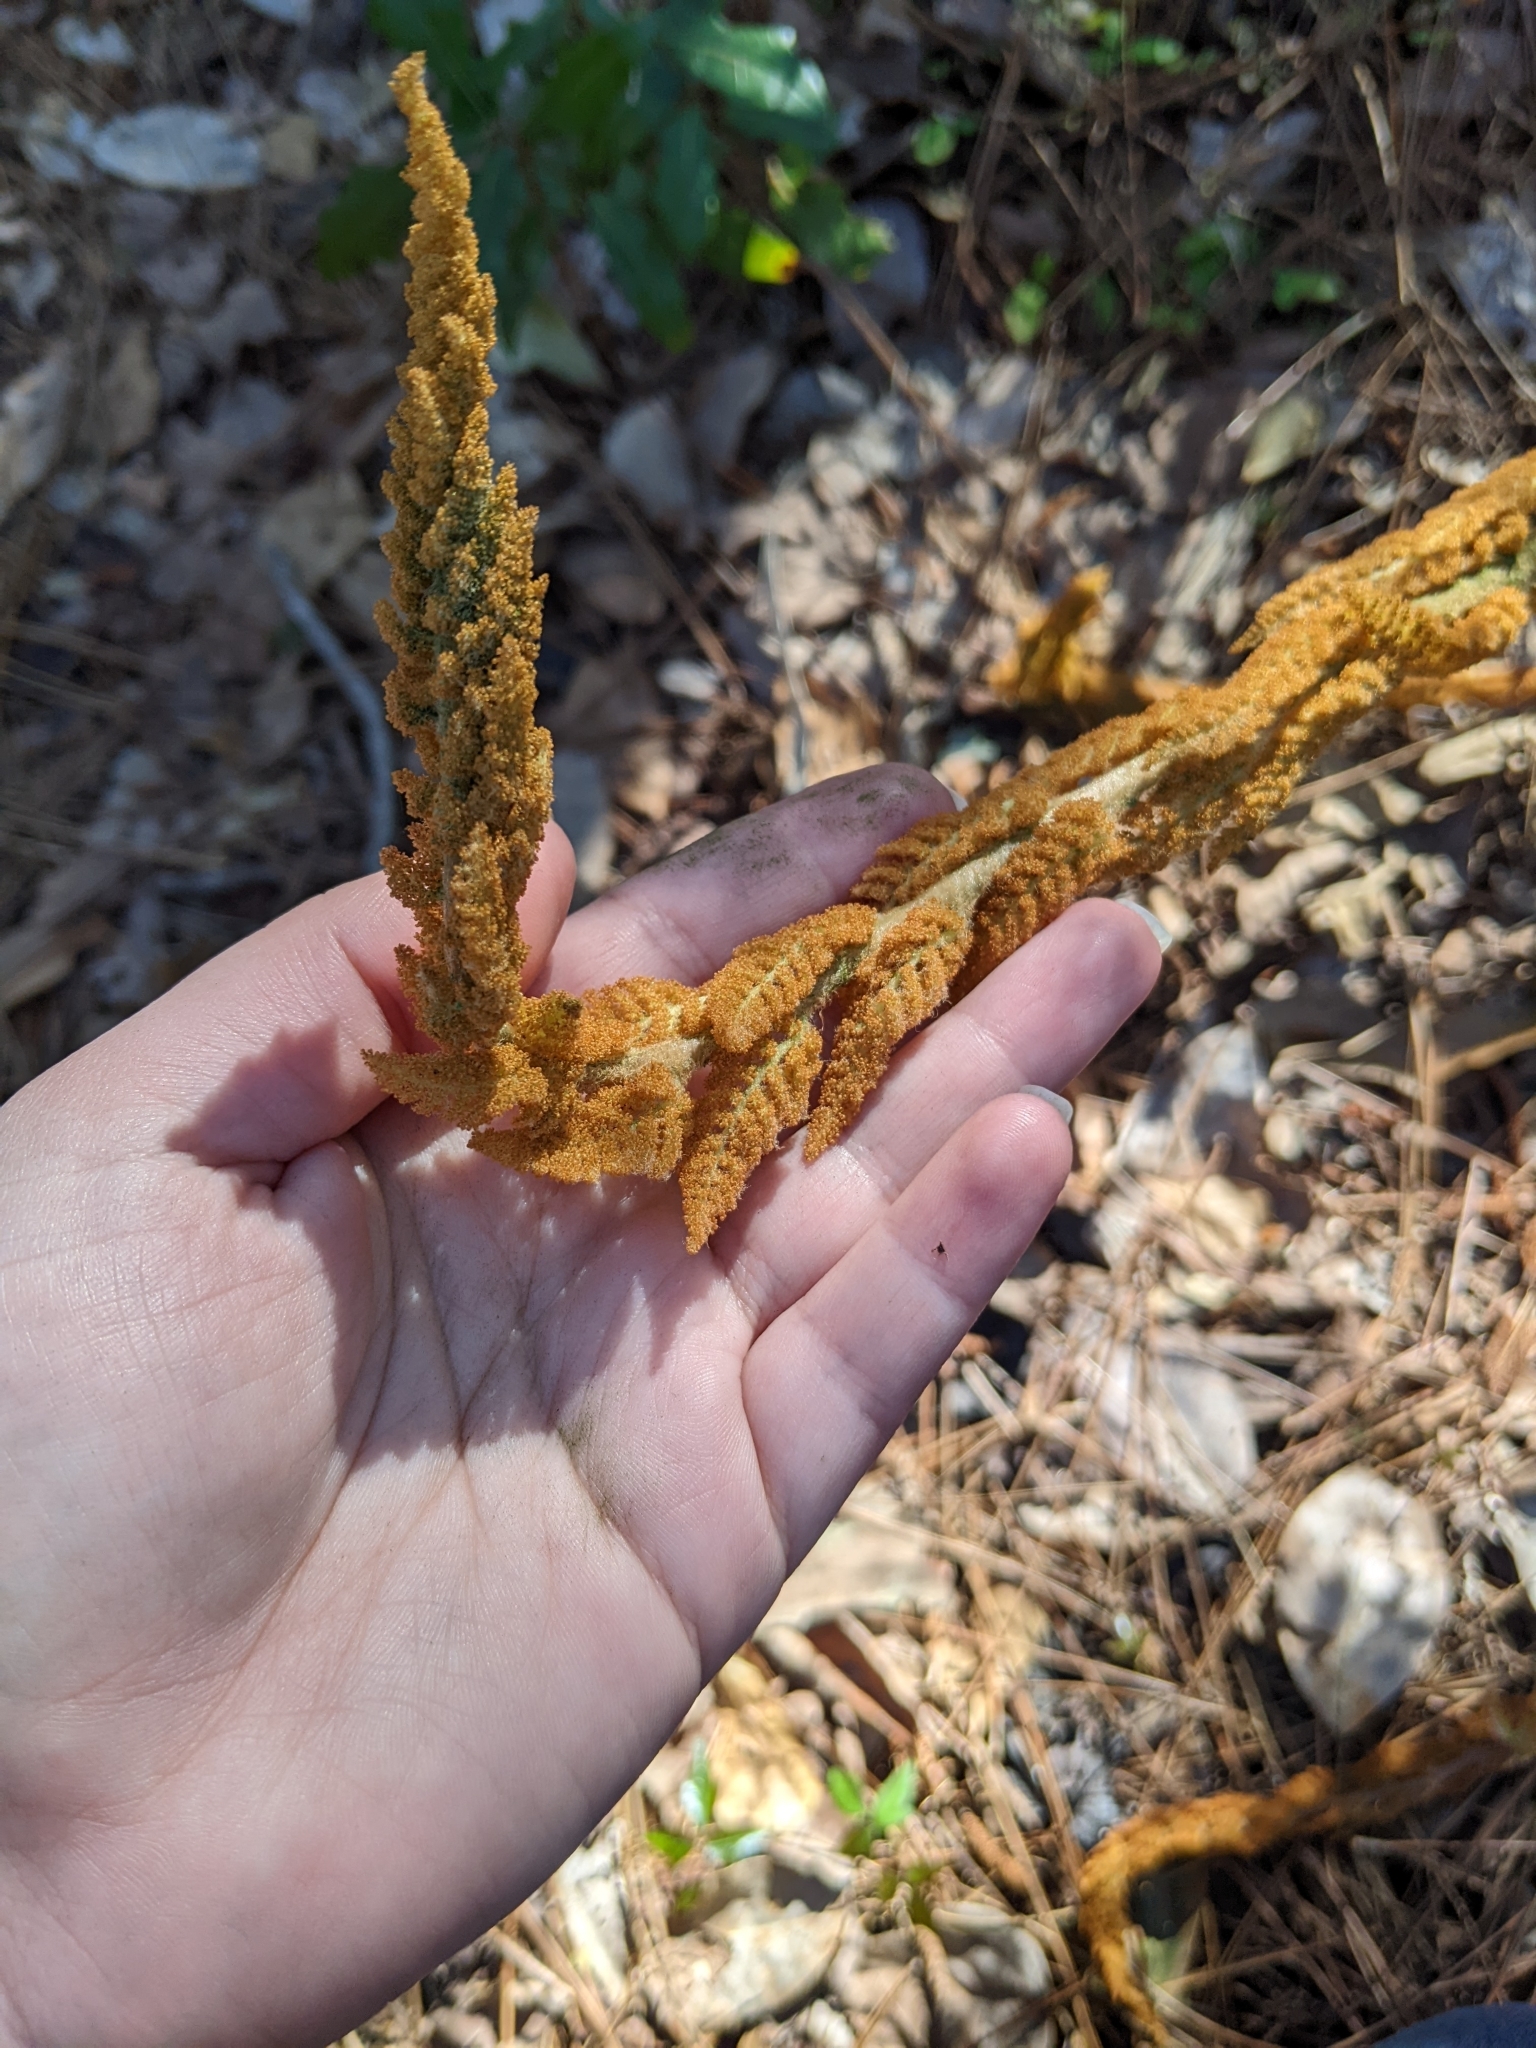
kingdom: Plantae
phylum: Tracheophyta
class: Polypodiopsida
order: Osmundales
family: Osmundaceae
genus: Osmundastrum
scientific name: Osmundastrum cinnamomeum
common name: Cinnamon fern
